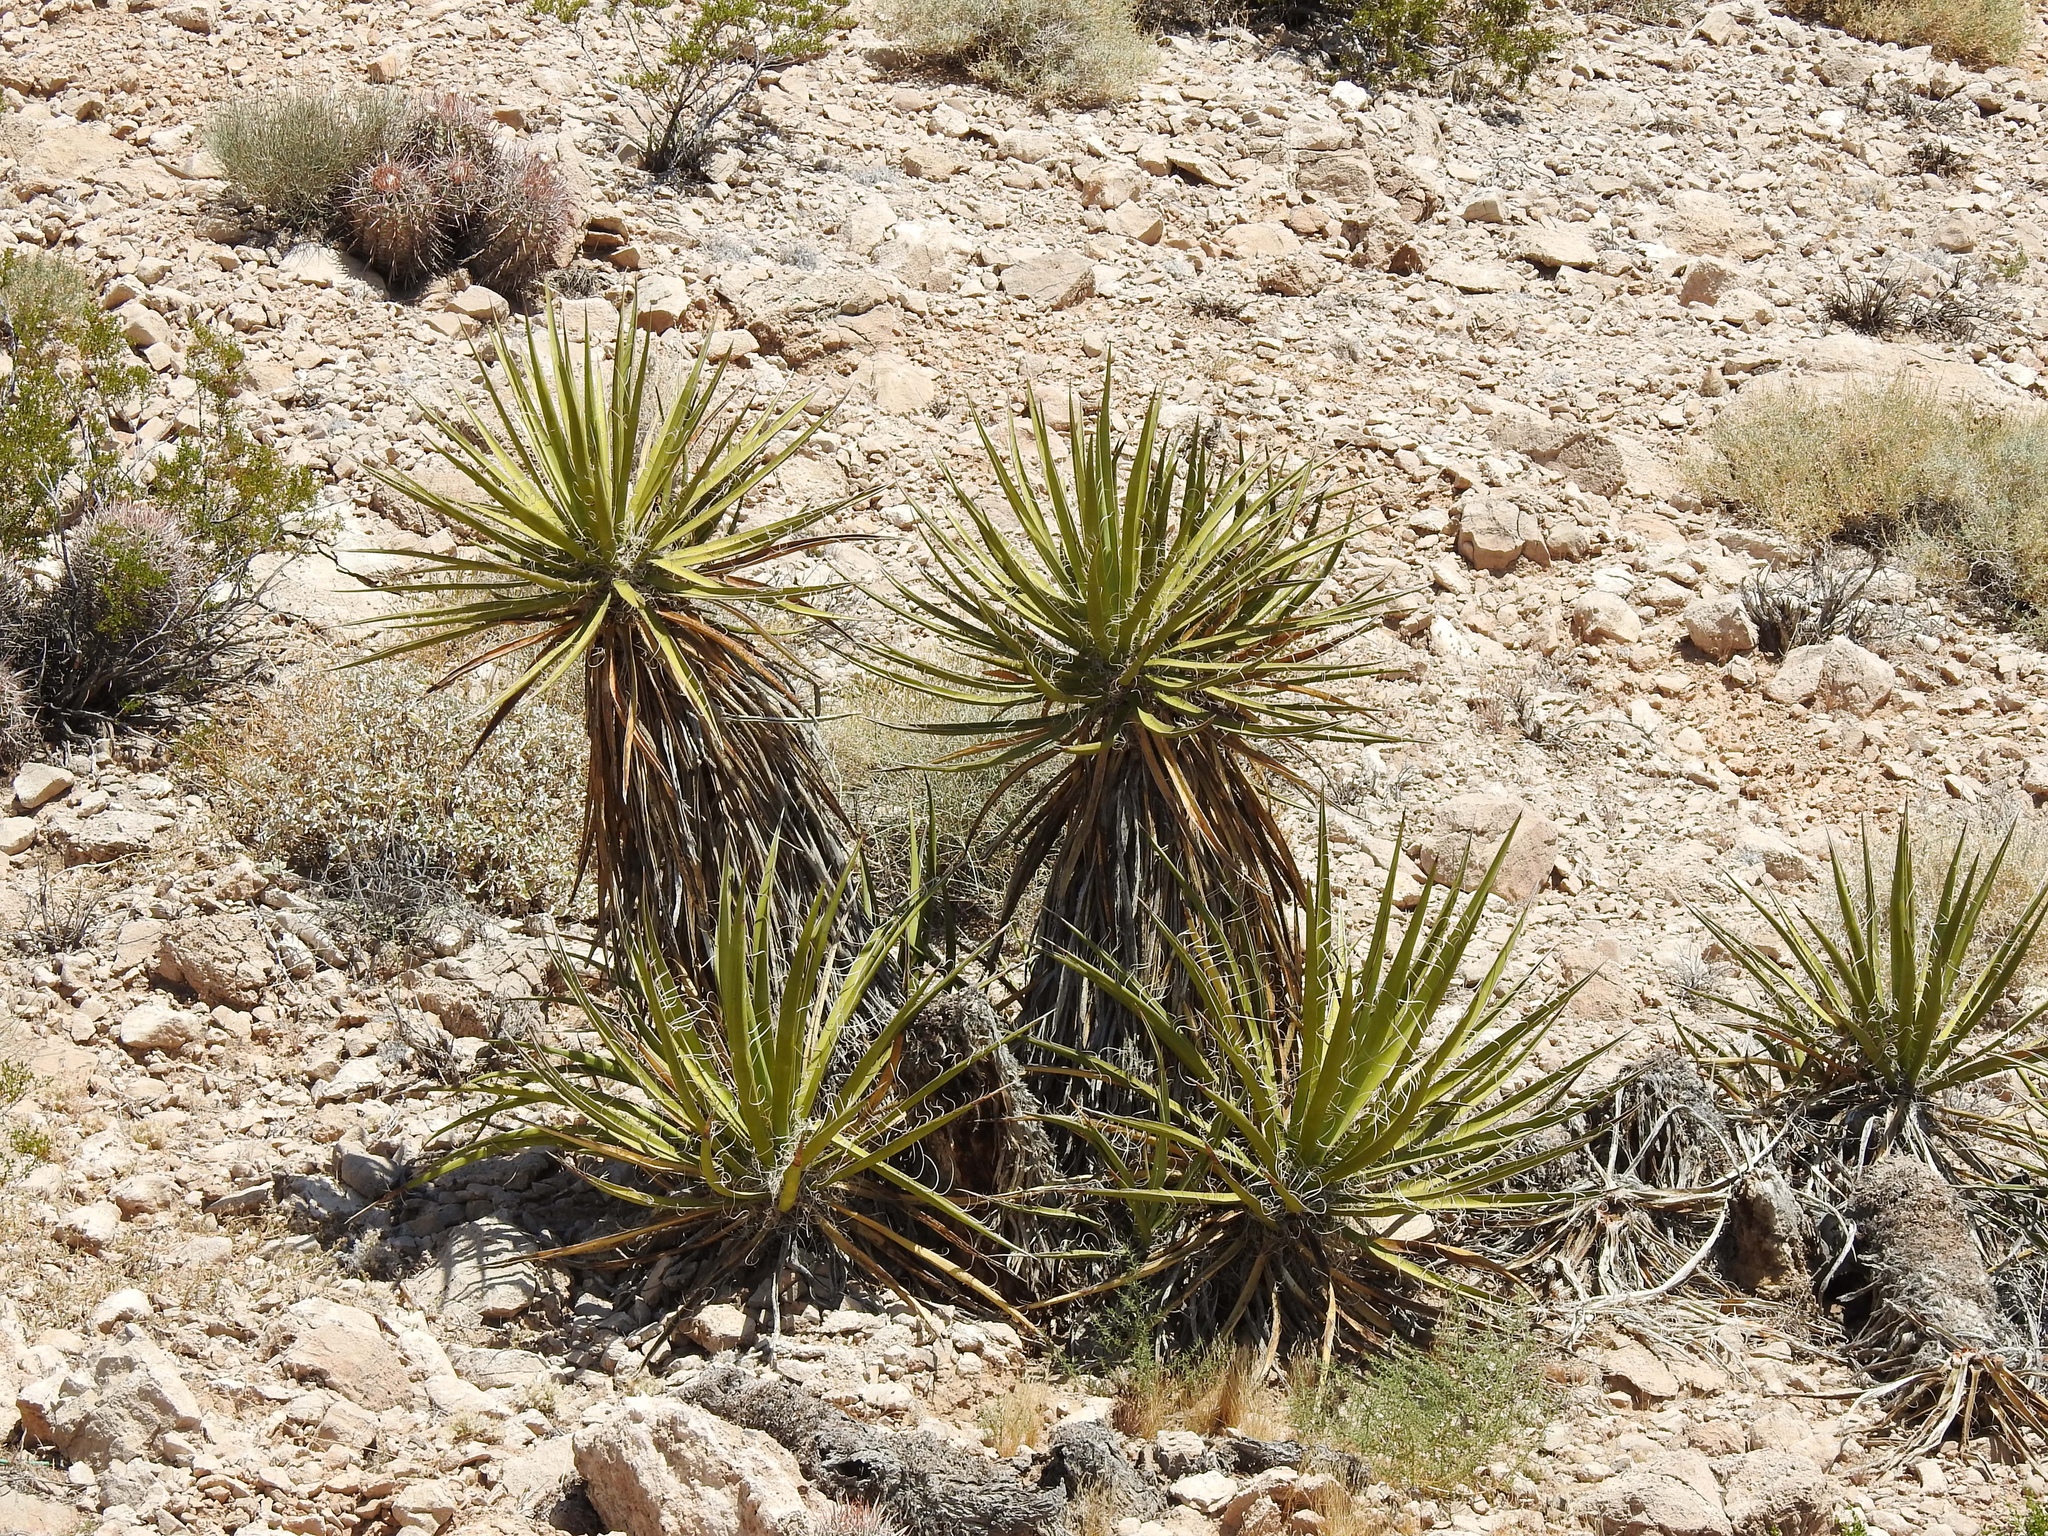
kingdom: Plantae
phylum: Tracheophyta
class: Liliopsida
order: Asparagales
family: Asparagaceae
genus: Yucca
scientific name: Yucca schidigera
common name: Mojave yucca
